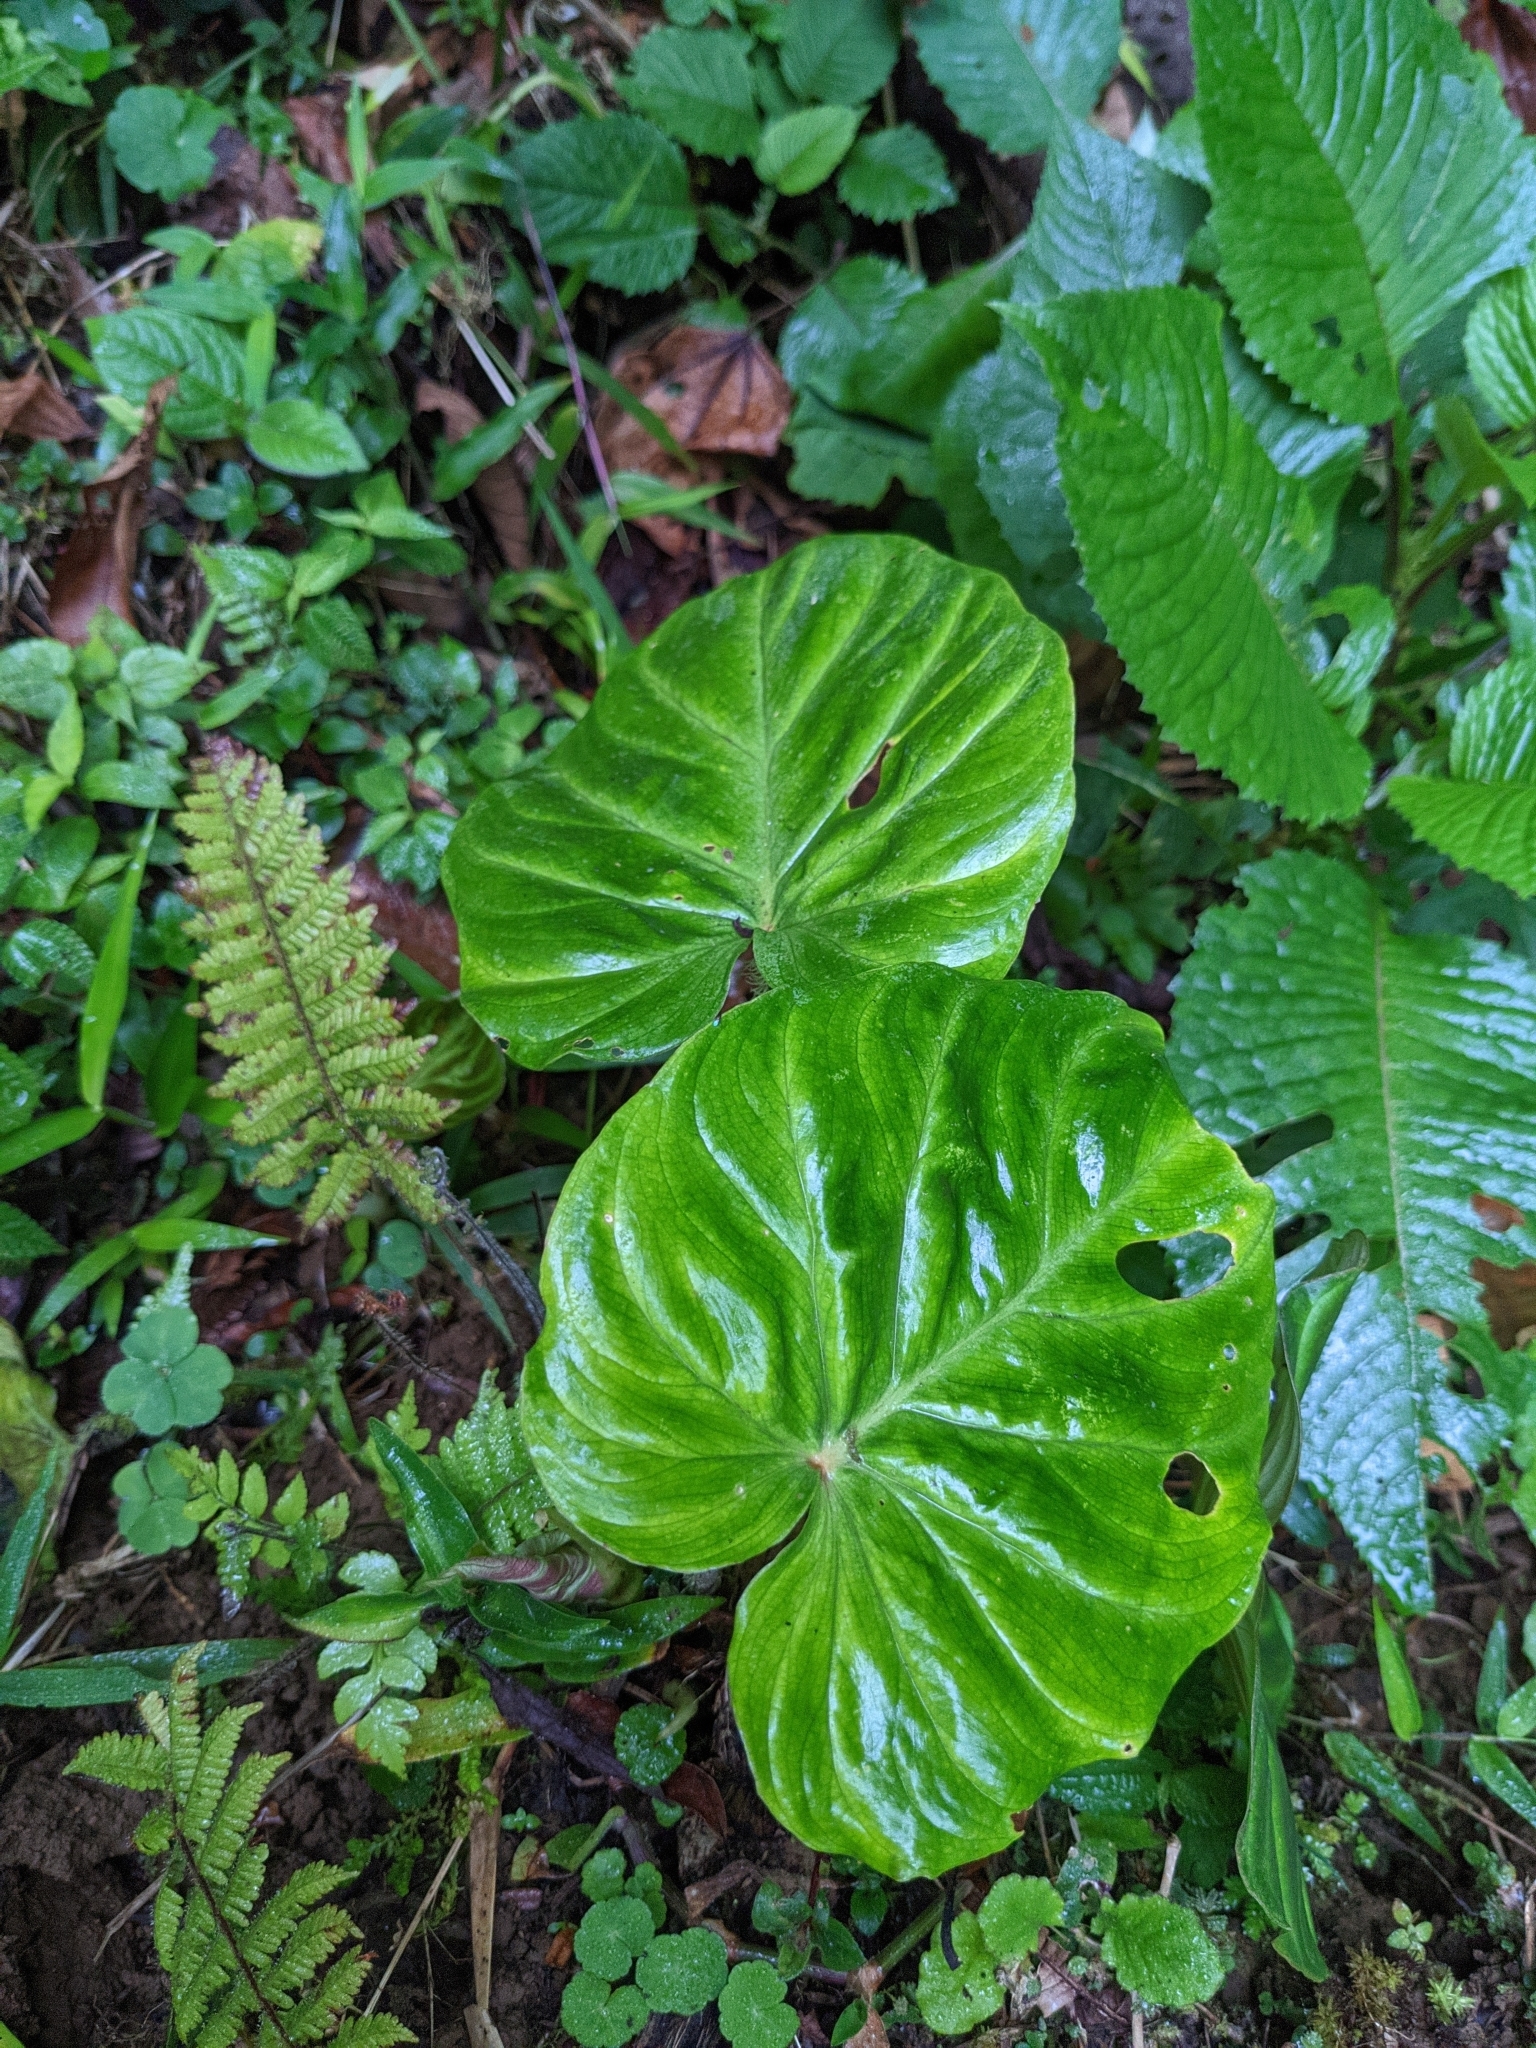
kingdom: Plantae
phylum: Tracheophyta
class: Liliopsida
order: Alismatales
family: Araceae
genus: Philodendron
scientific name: Philodendron verrucosum
